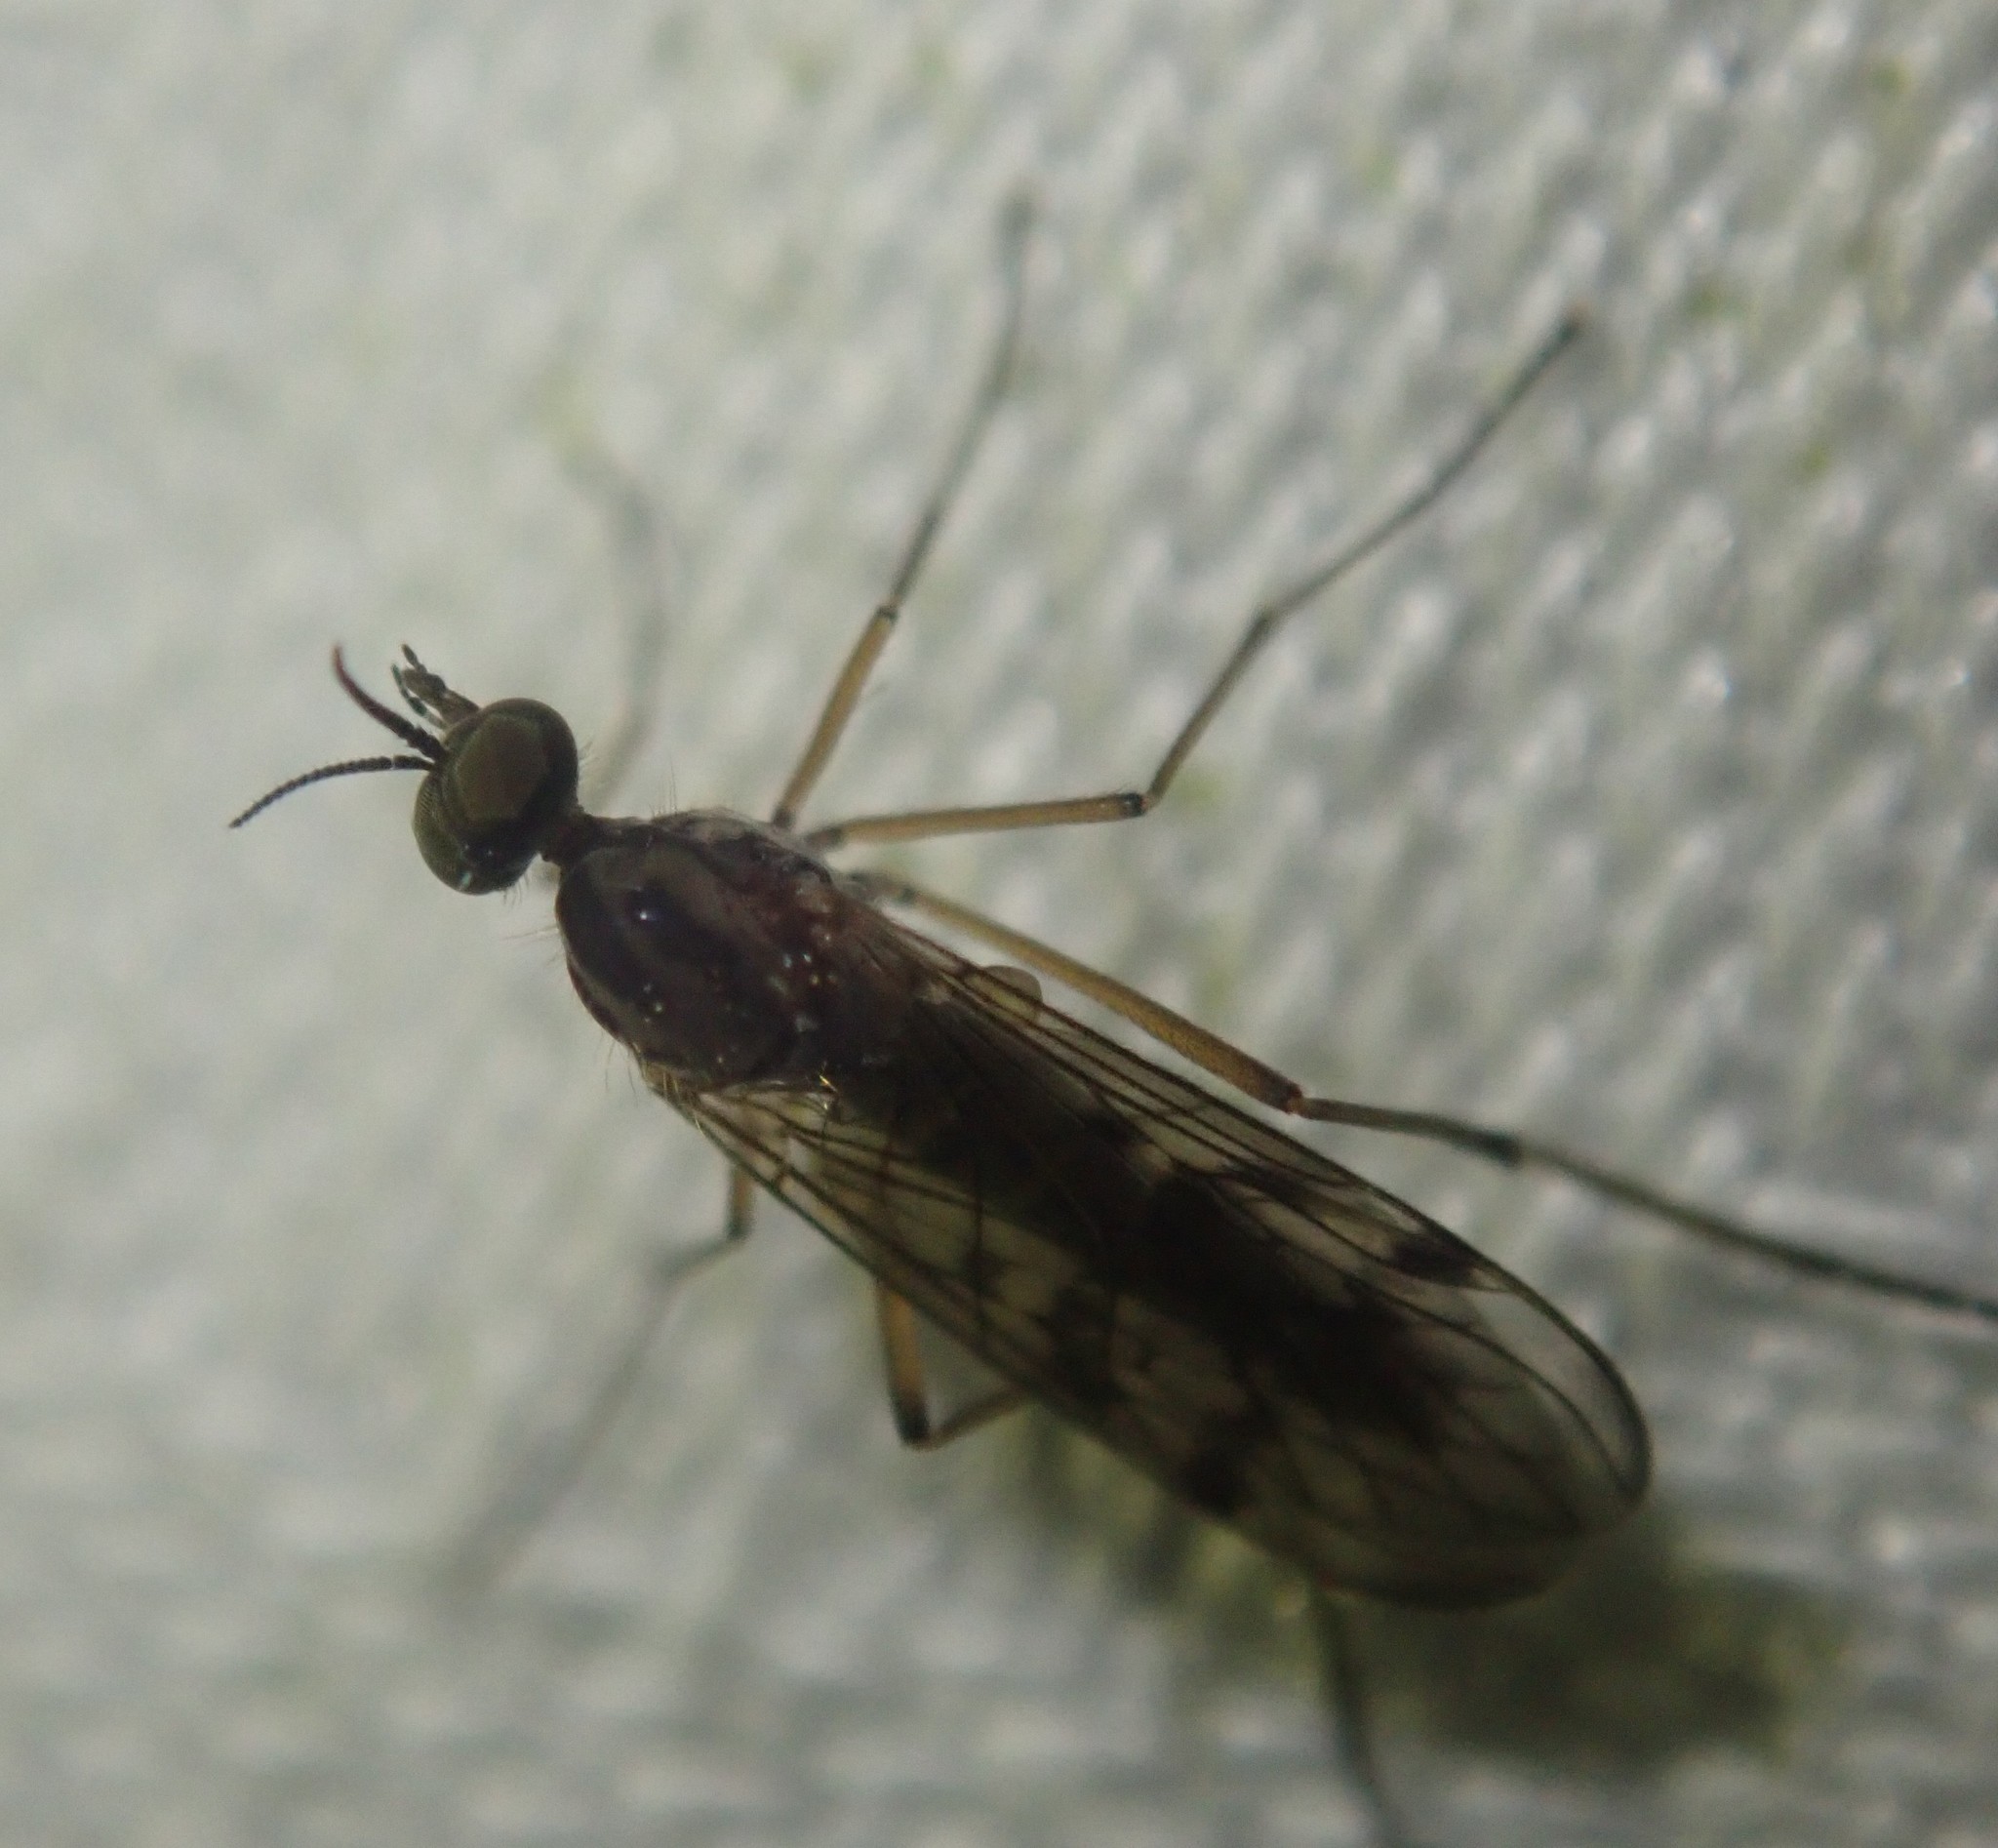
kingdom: Animalia
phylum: Arthropoda
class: Insecta
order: Diptera
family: Anisopodidae
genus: Sylvicola
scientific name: Sylvicola punctatus
